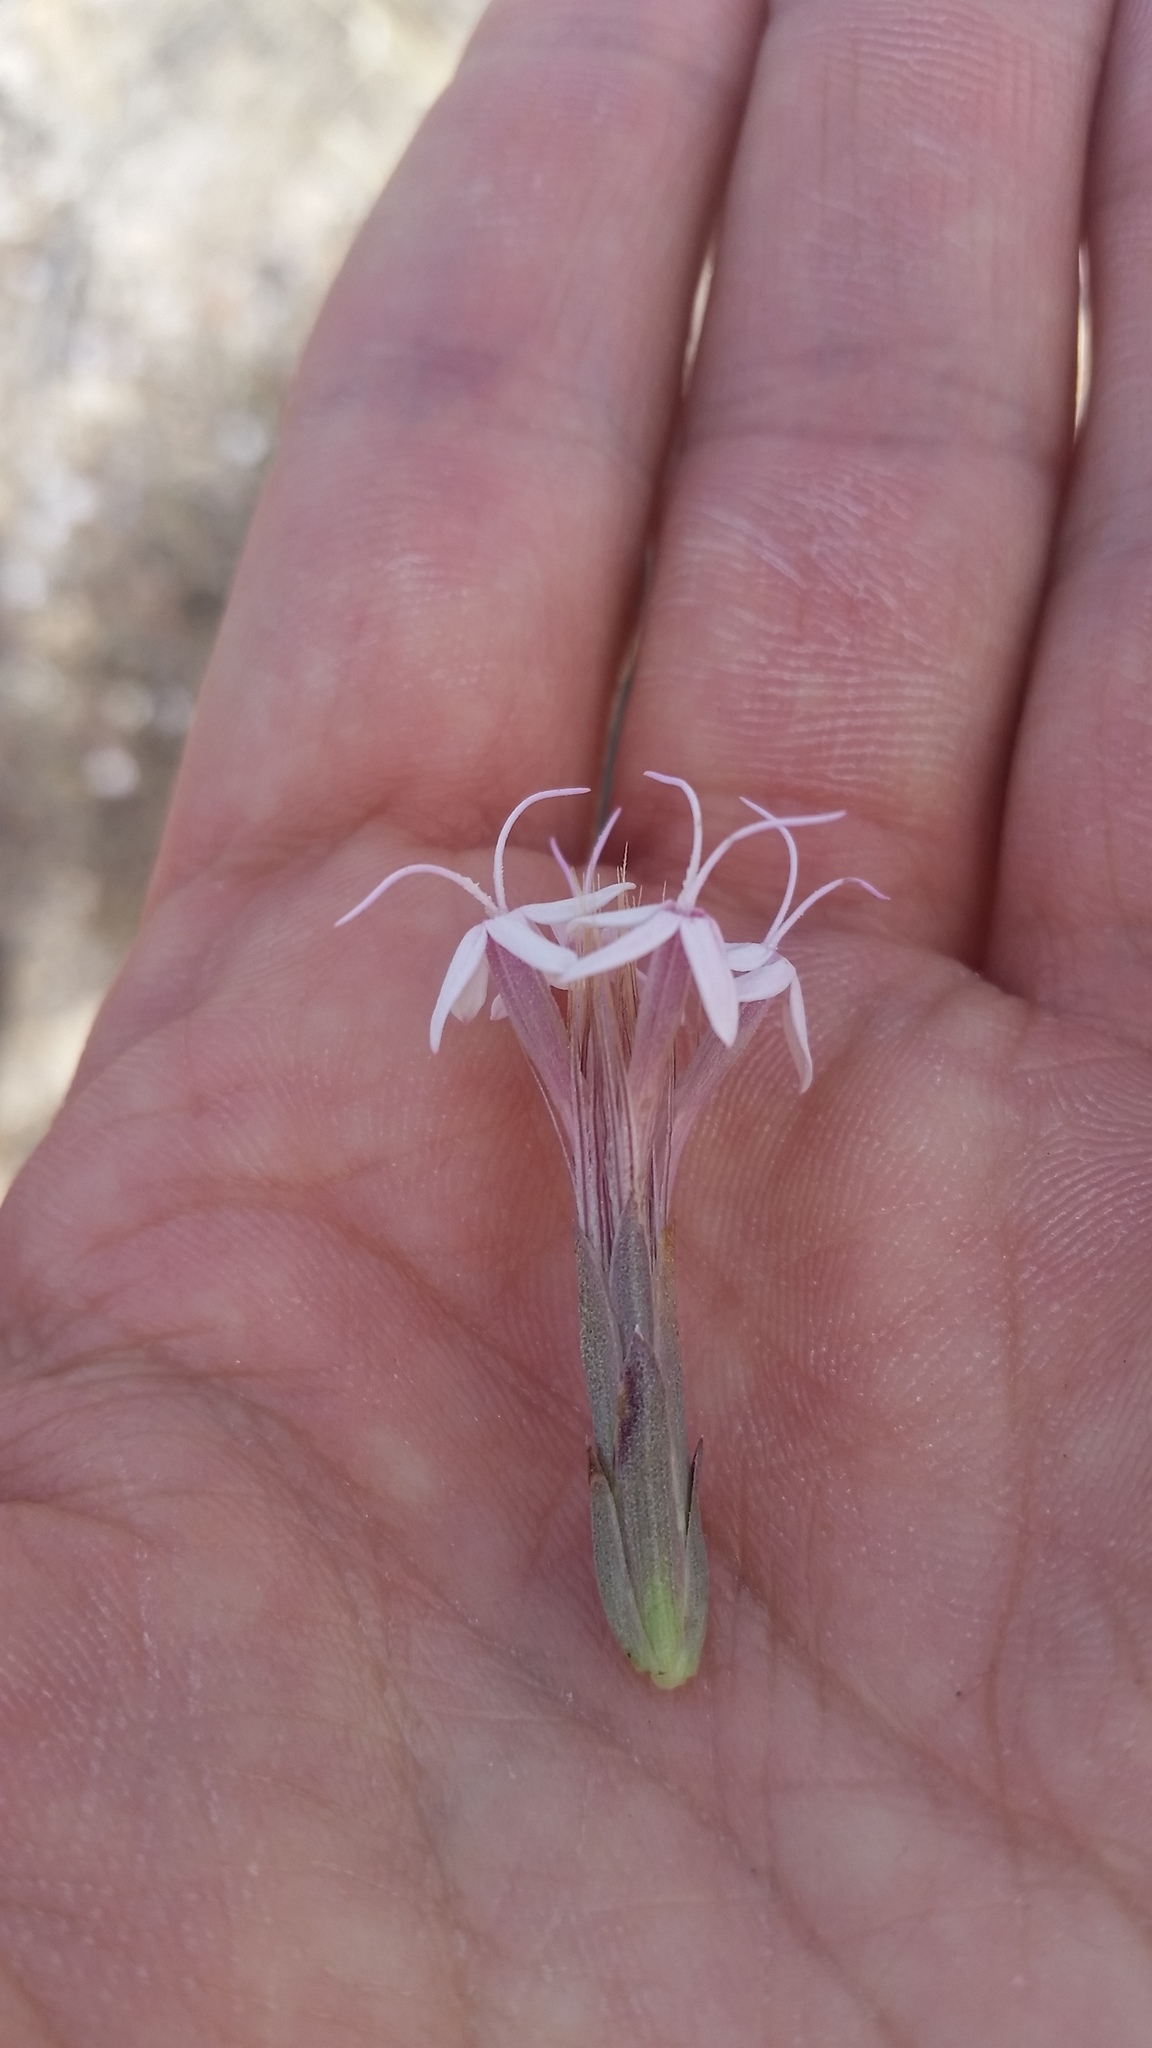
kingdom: Plantae
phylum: Tracheophyta
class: Magnoliopsida
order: Asterales
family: Asteraceae
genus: Carphochaete
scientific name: Carphochaete bigelovii
